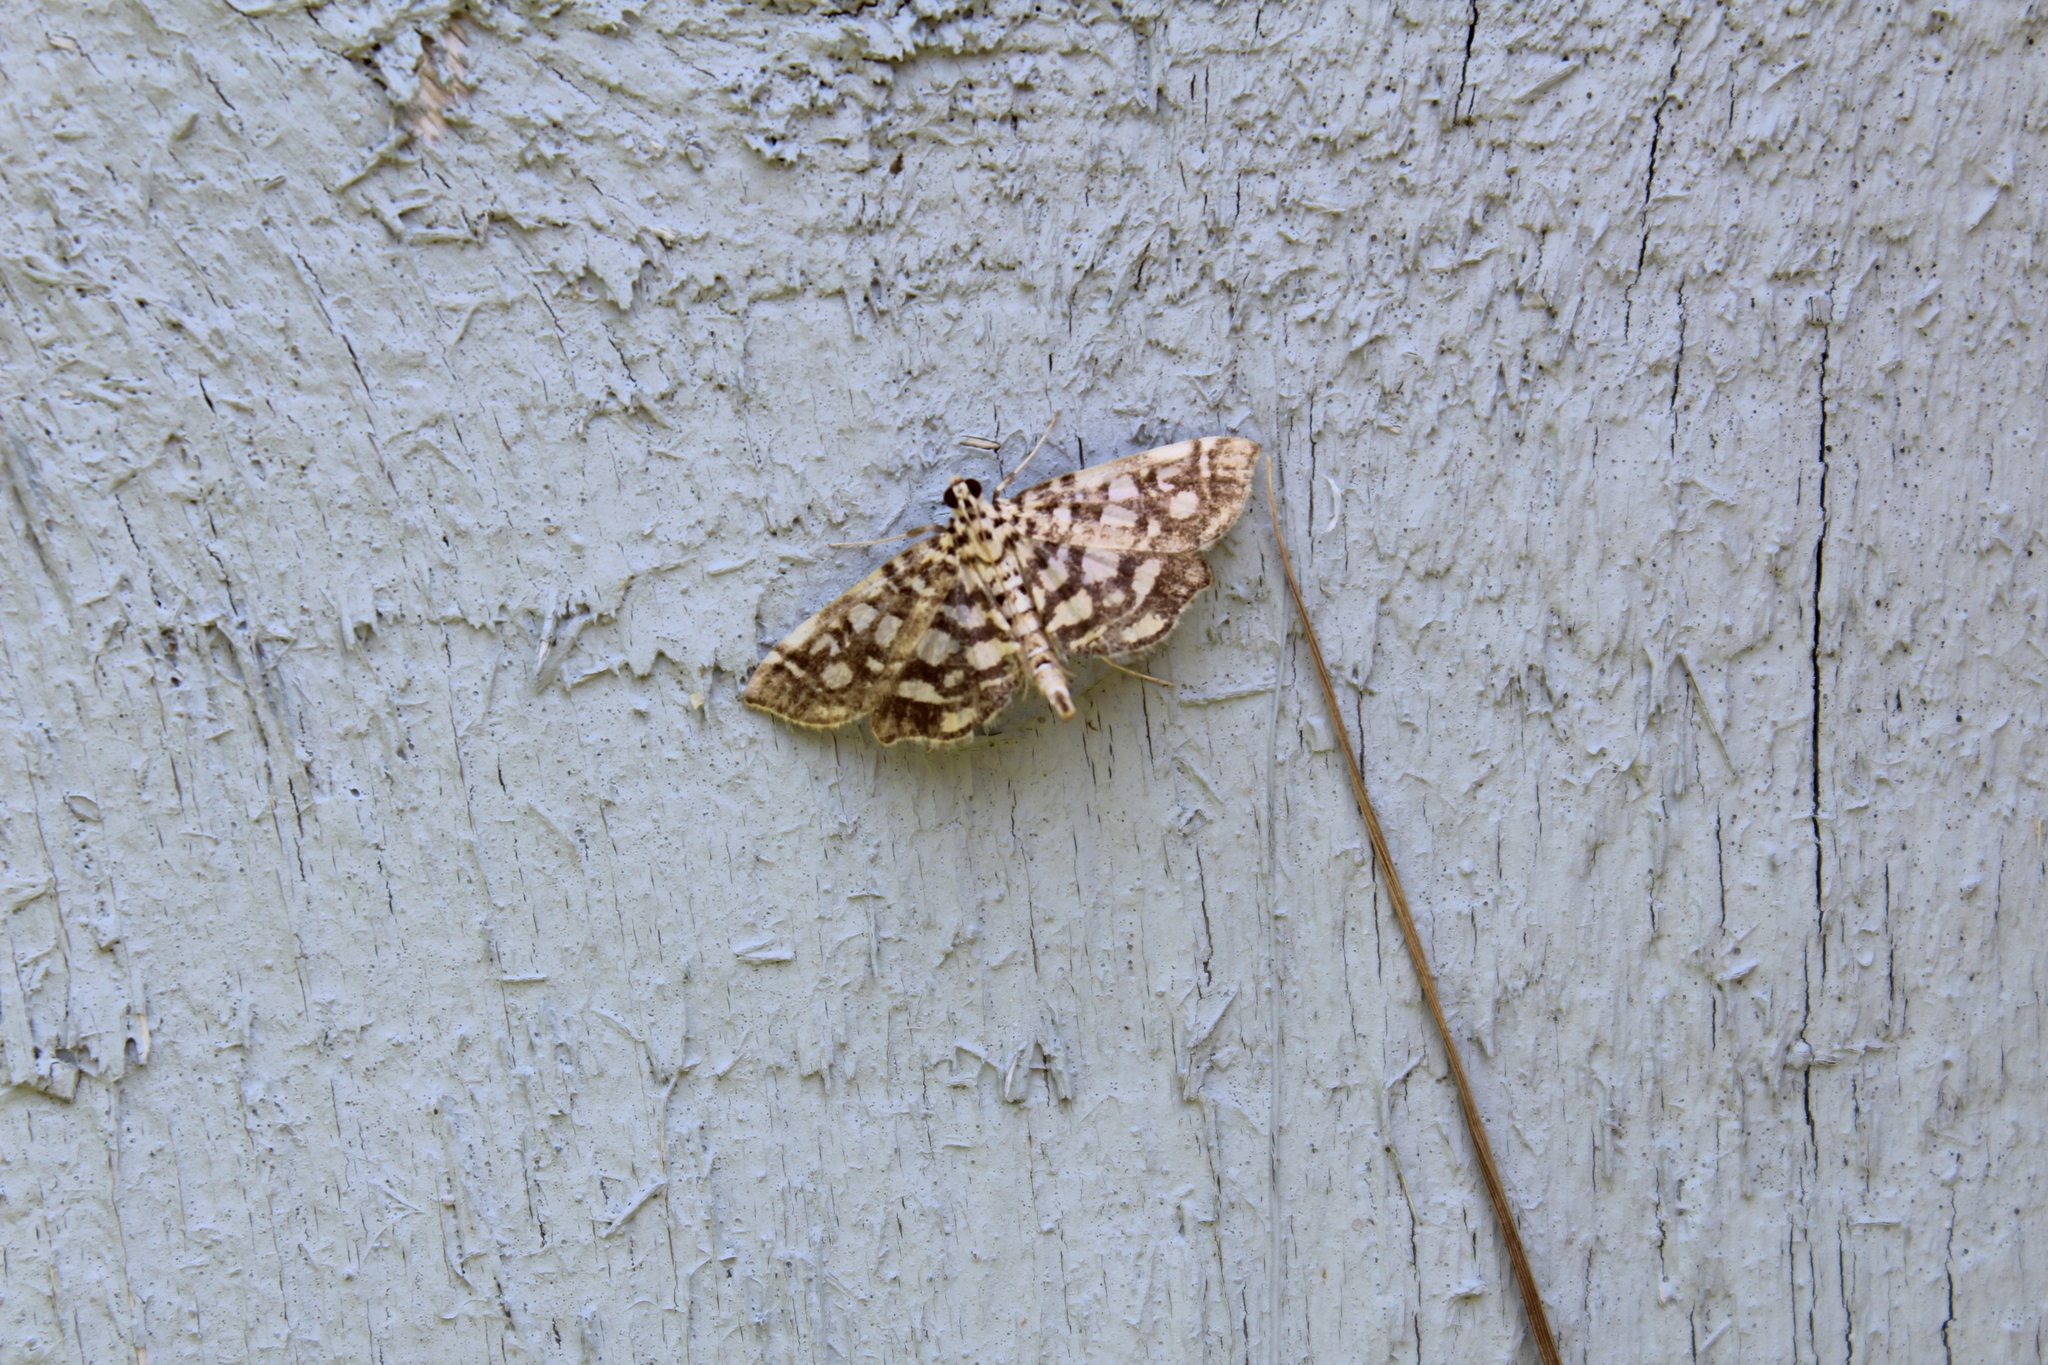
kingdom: Animalia
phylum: Arthropoda
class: Insecta
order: Lepidoptera
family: Crambidae
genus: Lygropia
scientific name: Lygropia rivulalis
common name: Bog lygropia moth
